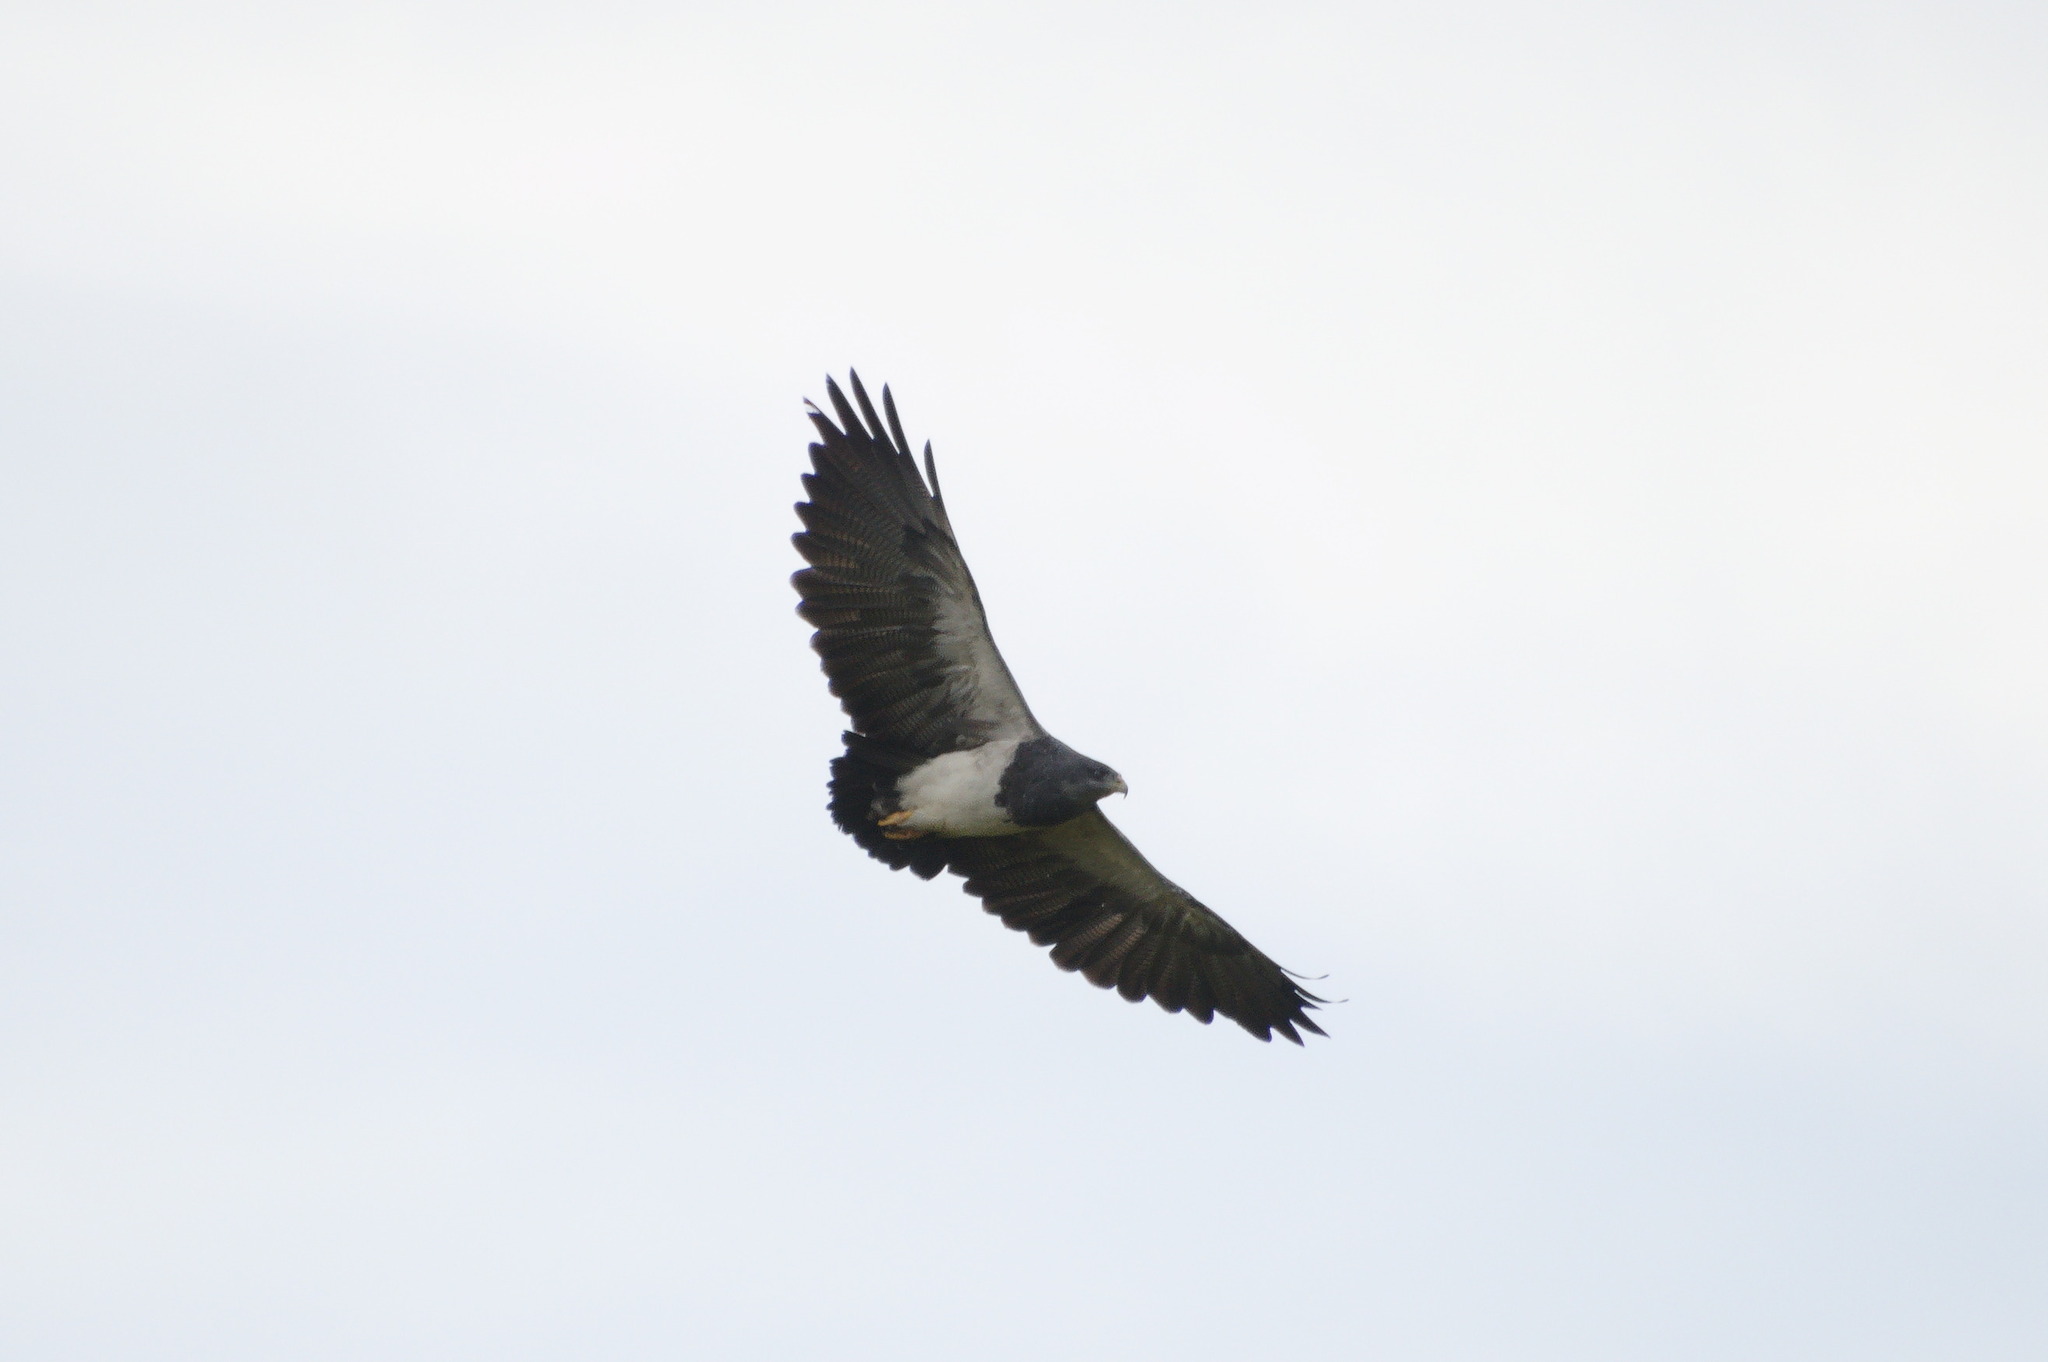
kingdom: Animalia
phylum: Chordata
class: Aves
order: Accipitriformes
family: Accipitridae
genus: Geranoaetus
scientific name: Geranoaetus melanoleucus
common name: Black-chested buzzard-eagle
